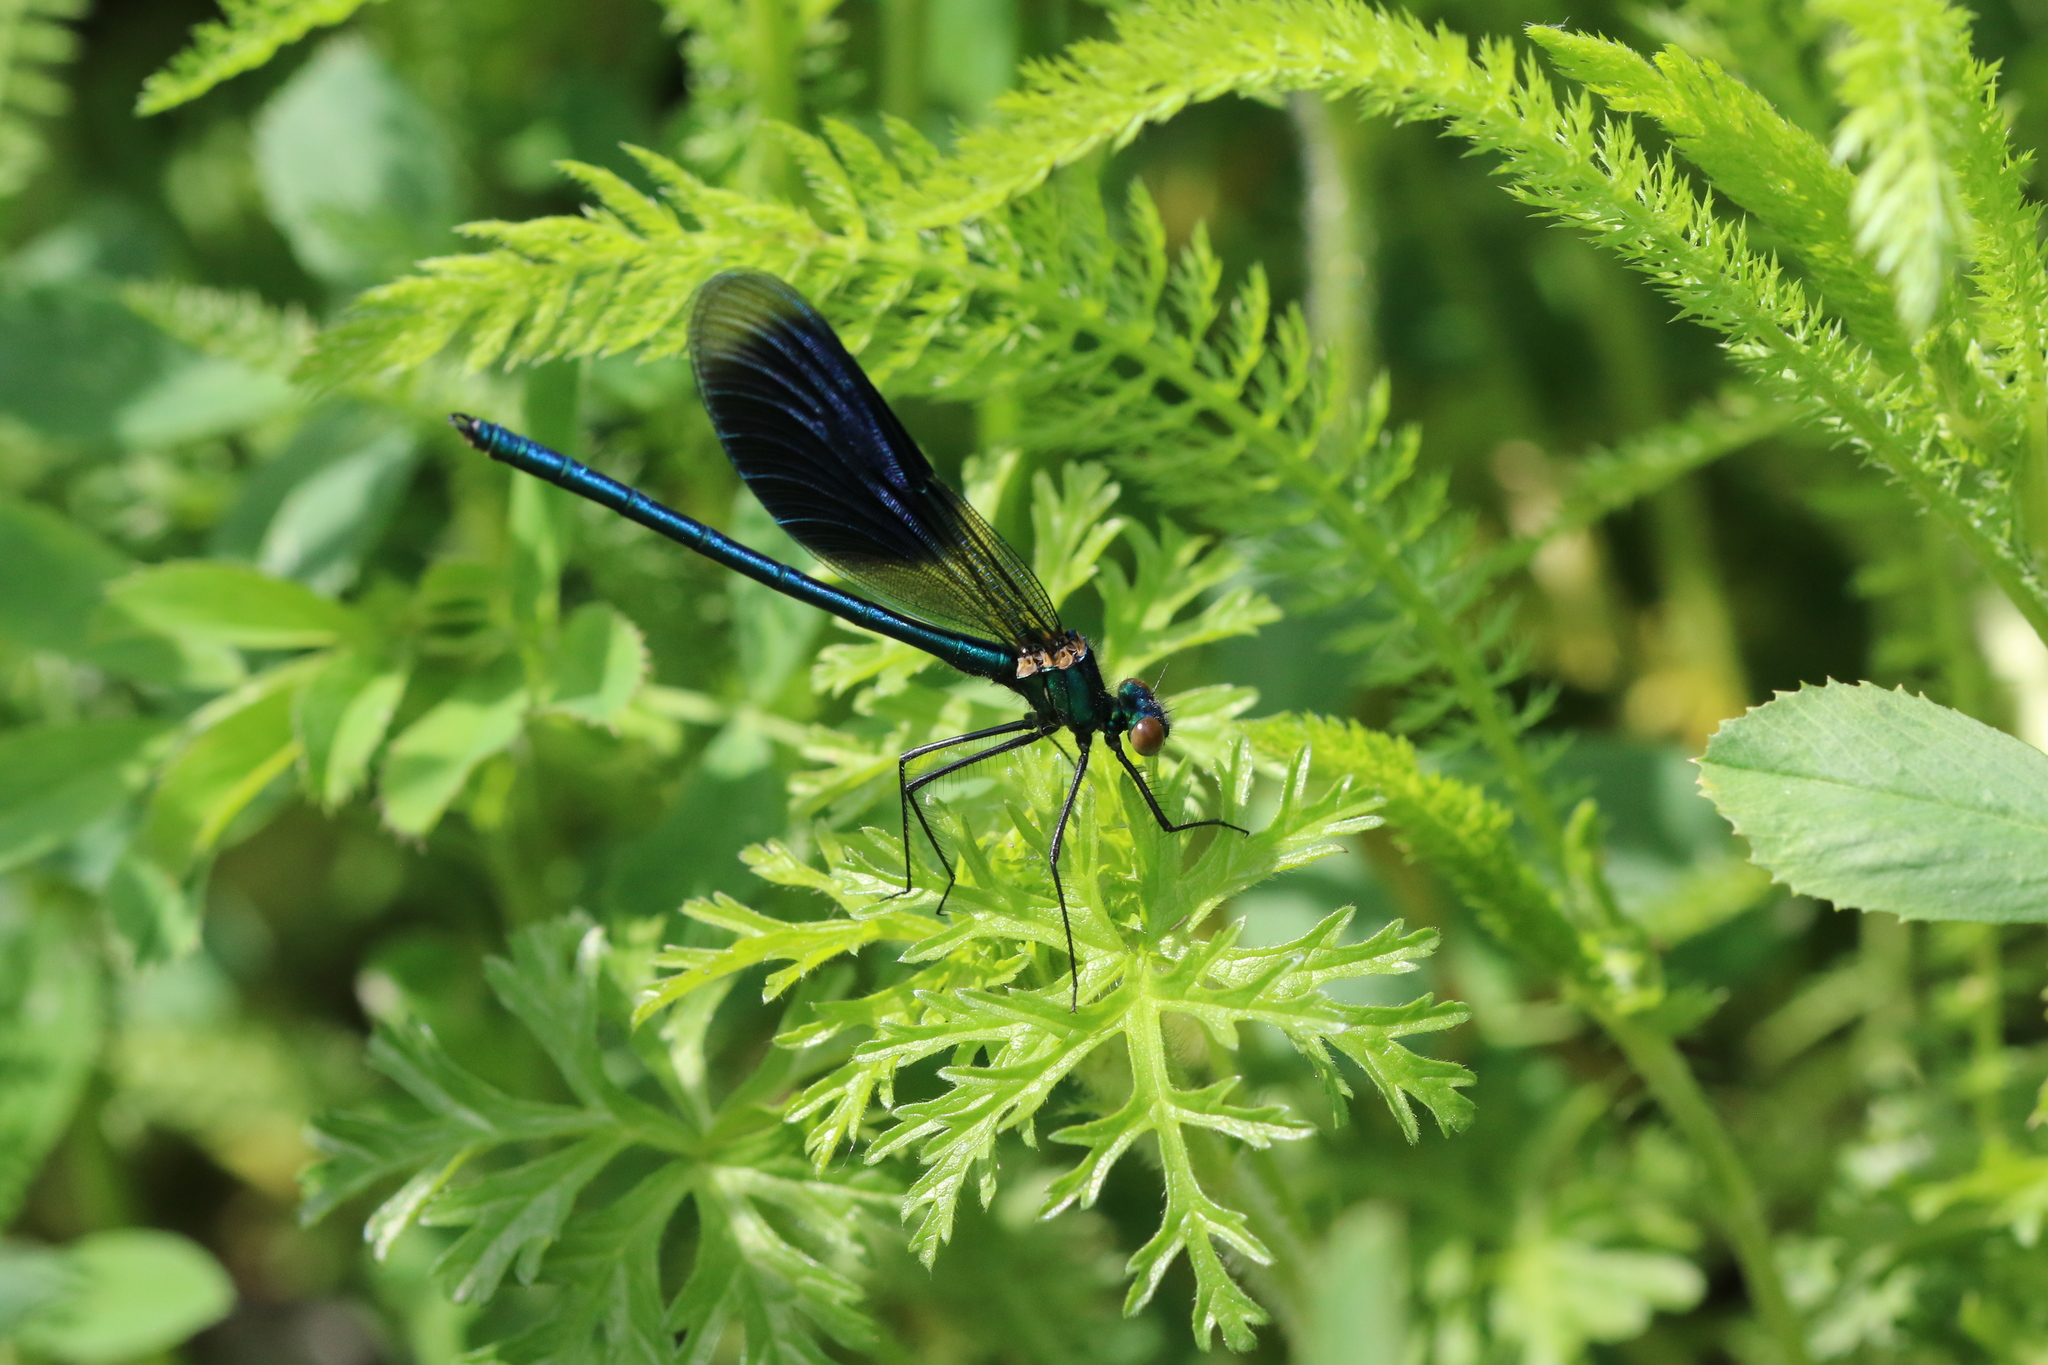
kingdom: Animalia
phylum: Arthropoda
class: Insecta
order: Odonata
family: Calopterygidae
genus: Calopteryx
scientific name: Calopteryx splendens
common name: Banded demoiselle
